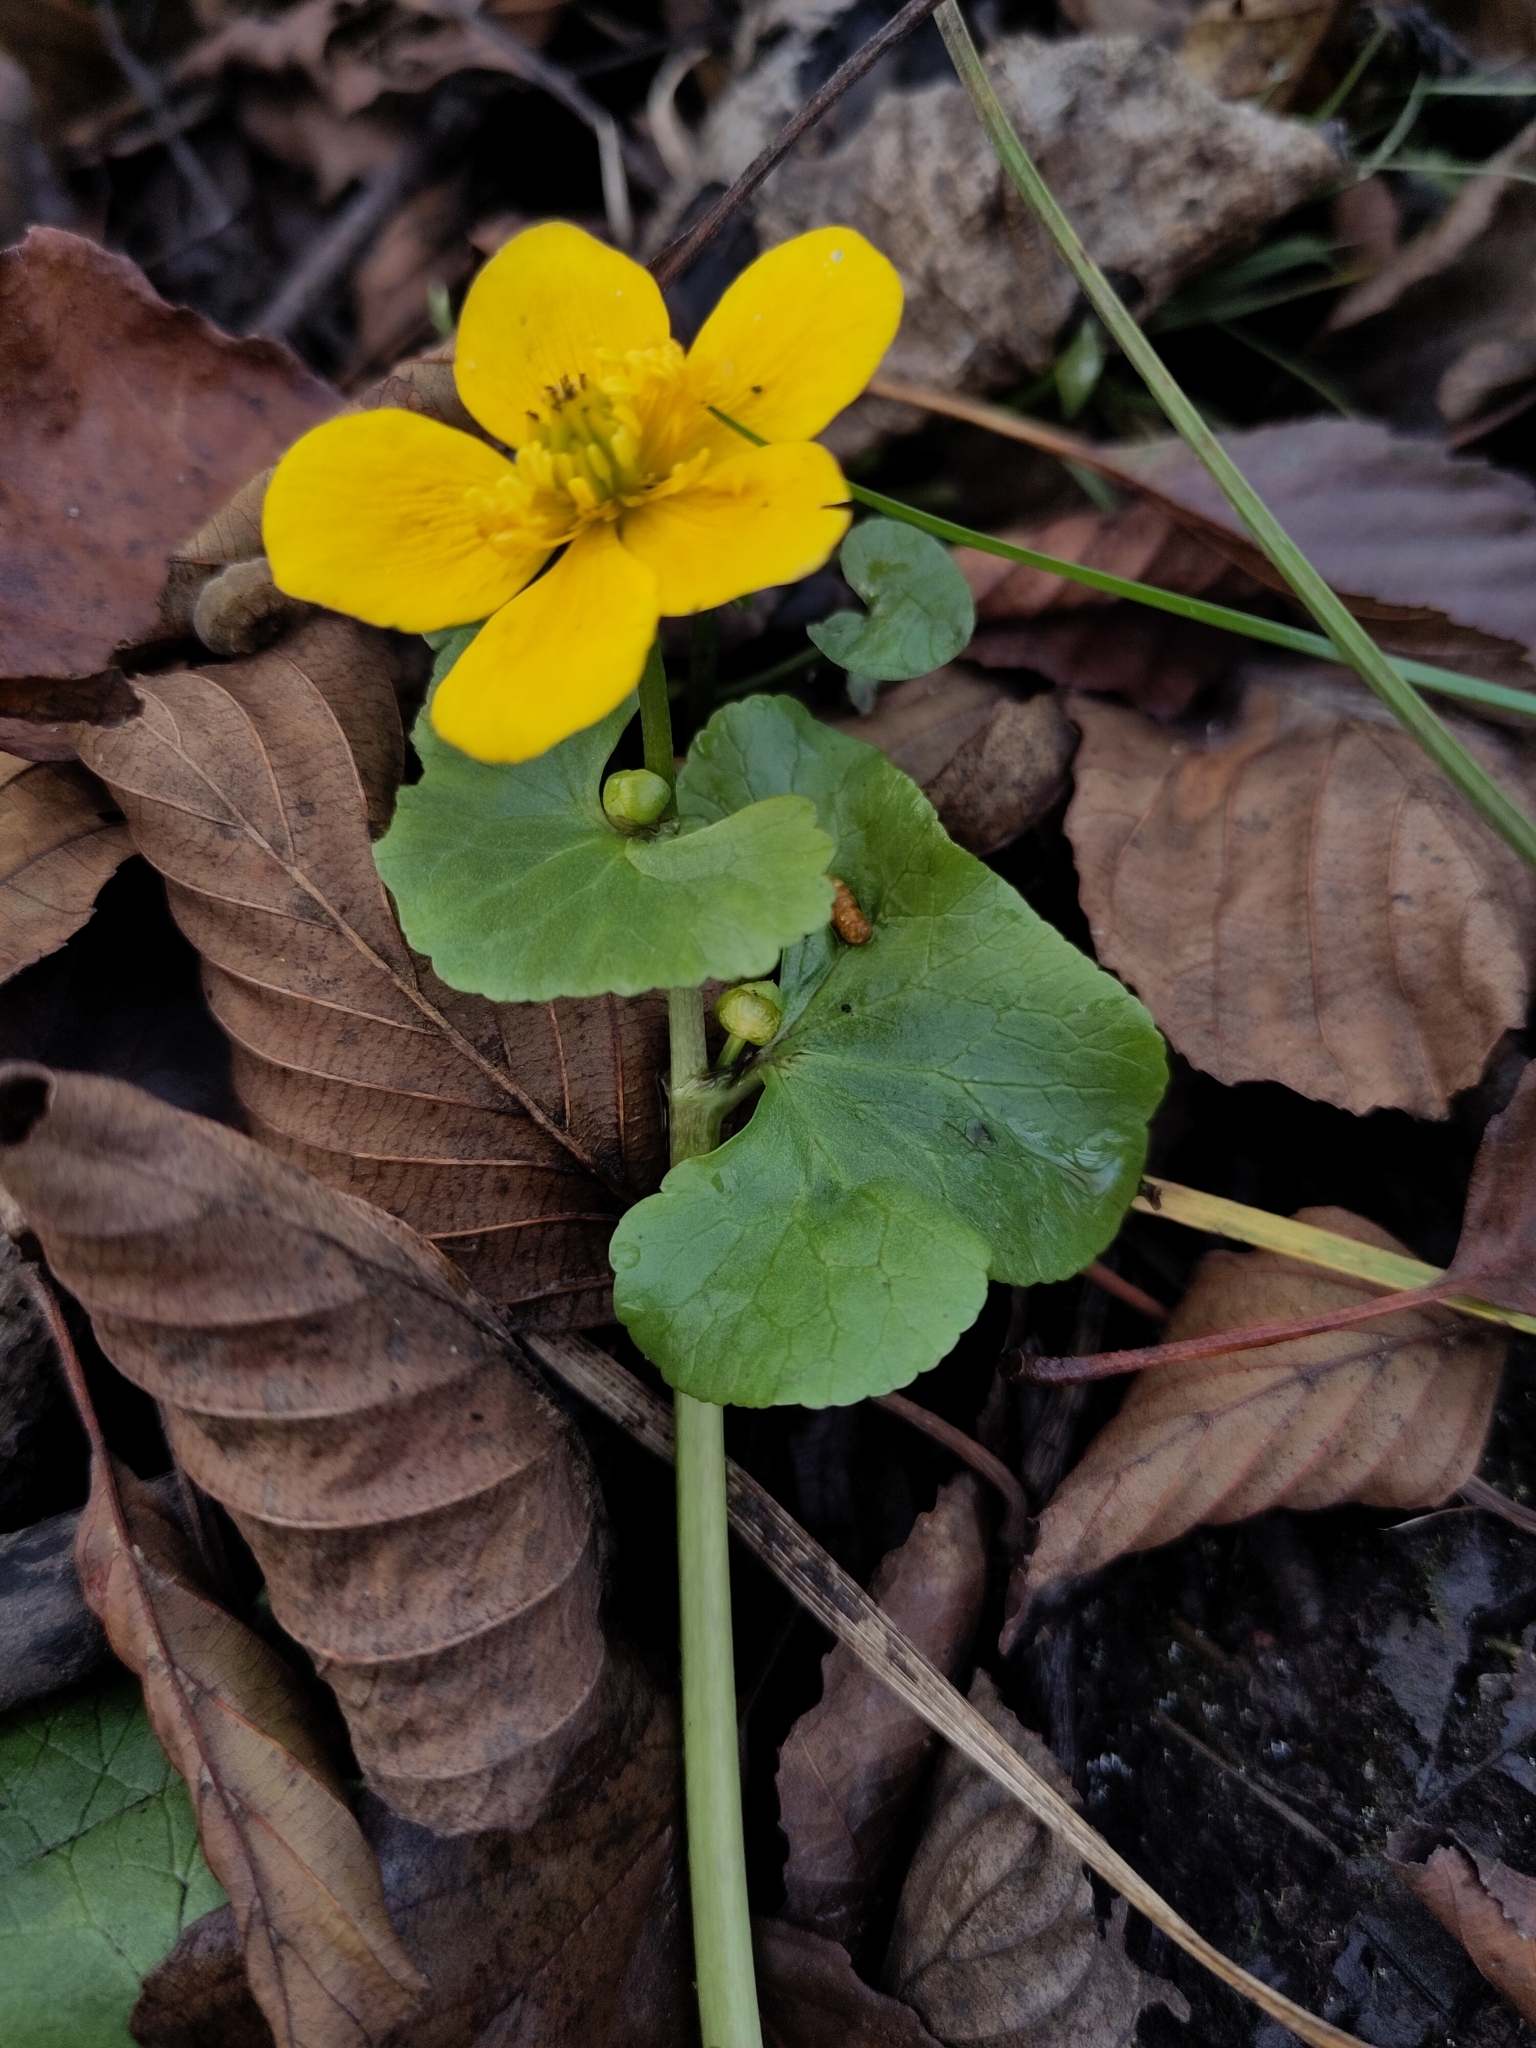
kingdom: Plantae
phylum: Tracheophyta
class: Magnoliopsida
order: Ranunculales
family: Ranunculaceae
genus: Caltha
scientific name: Caltha palustris
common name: Marsh marigold
